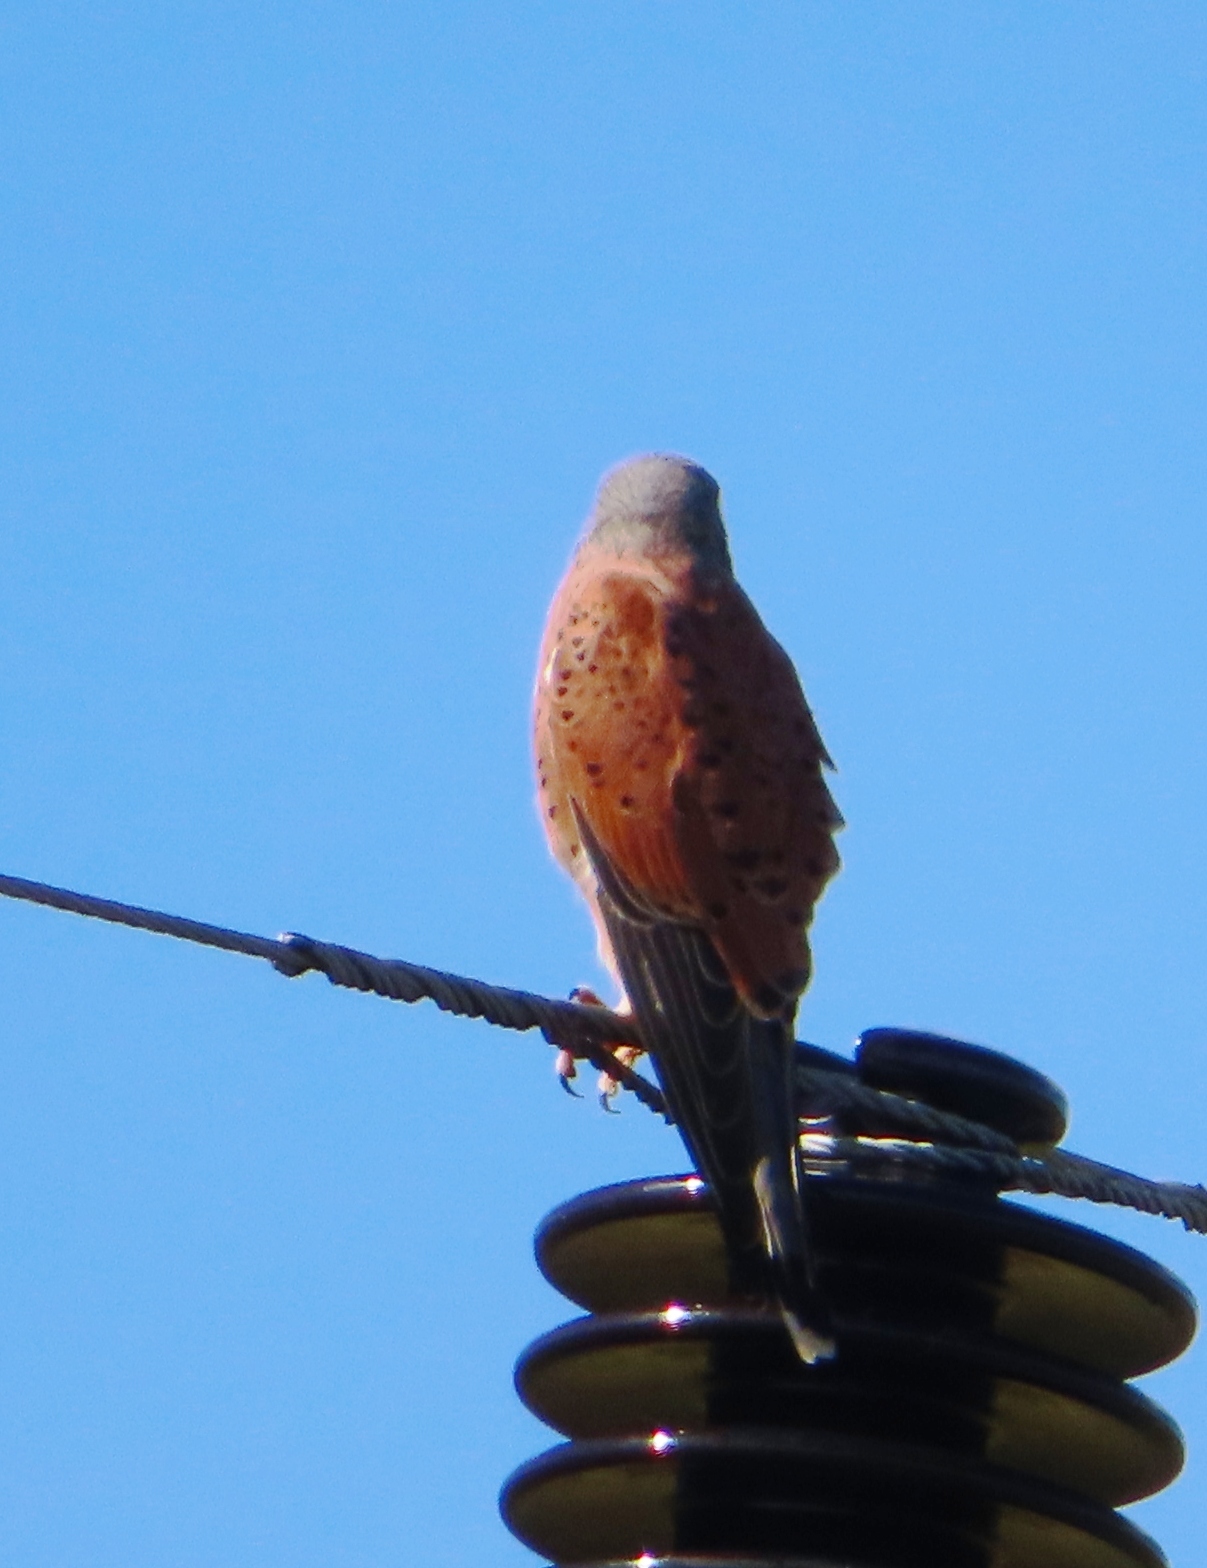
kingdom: Animalia
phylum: Chordata
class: Aves
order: Falconiformes
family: Falconidae
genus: Falco
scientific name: Falco rupicolus
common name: Rock kestrel
